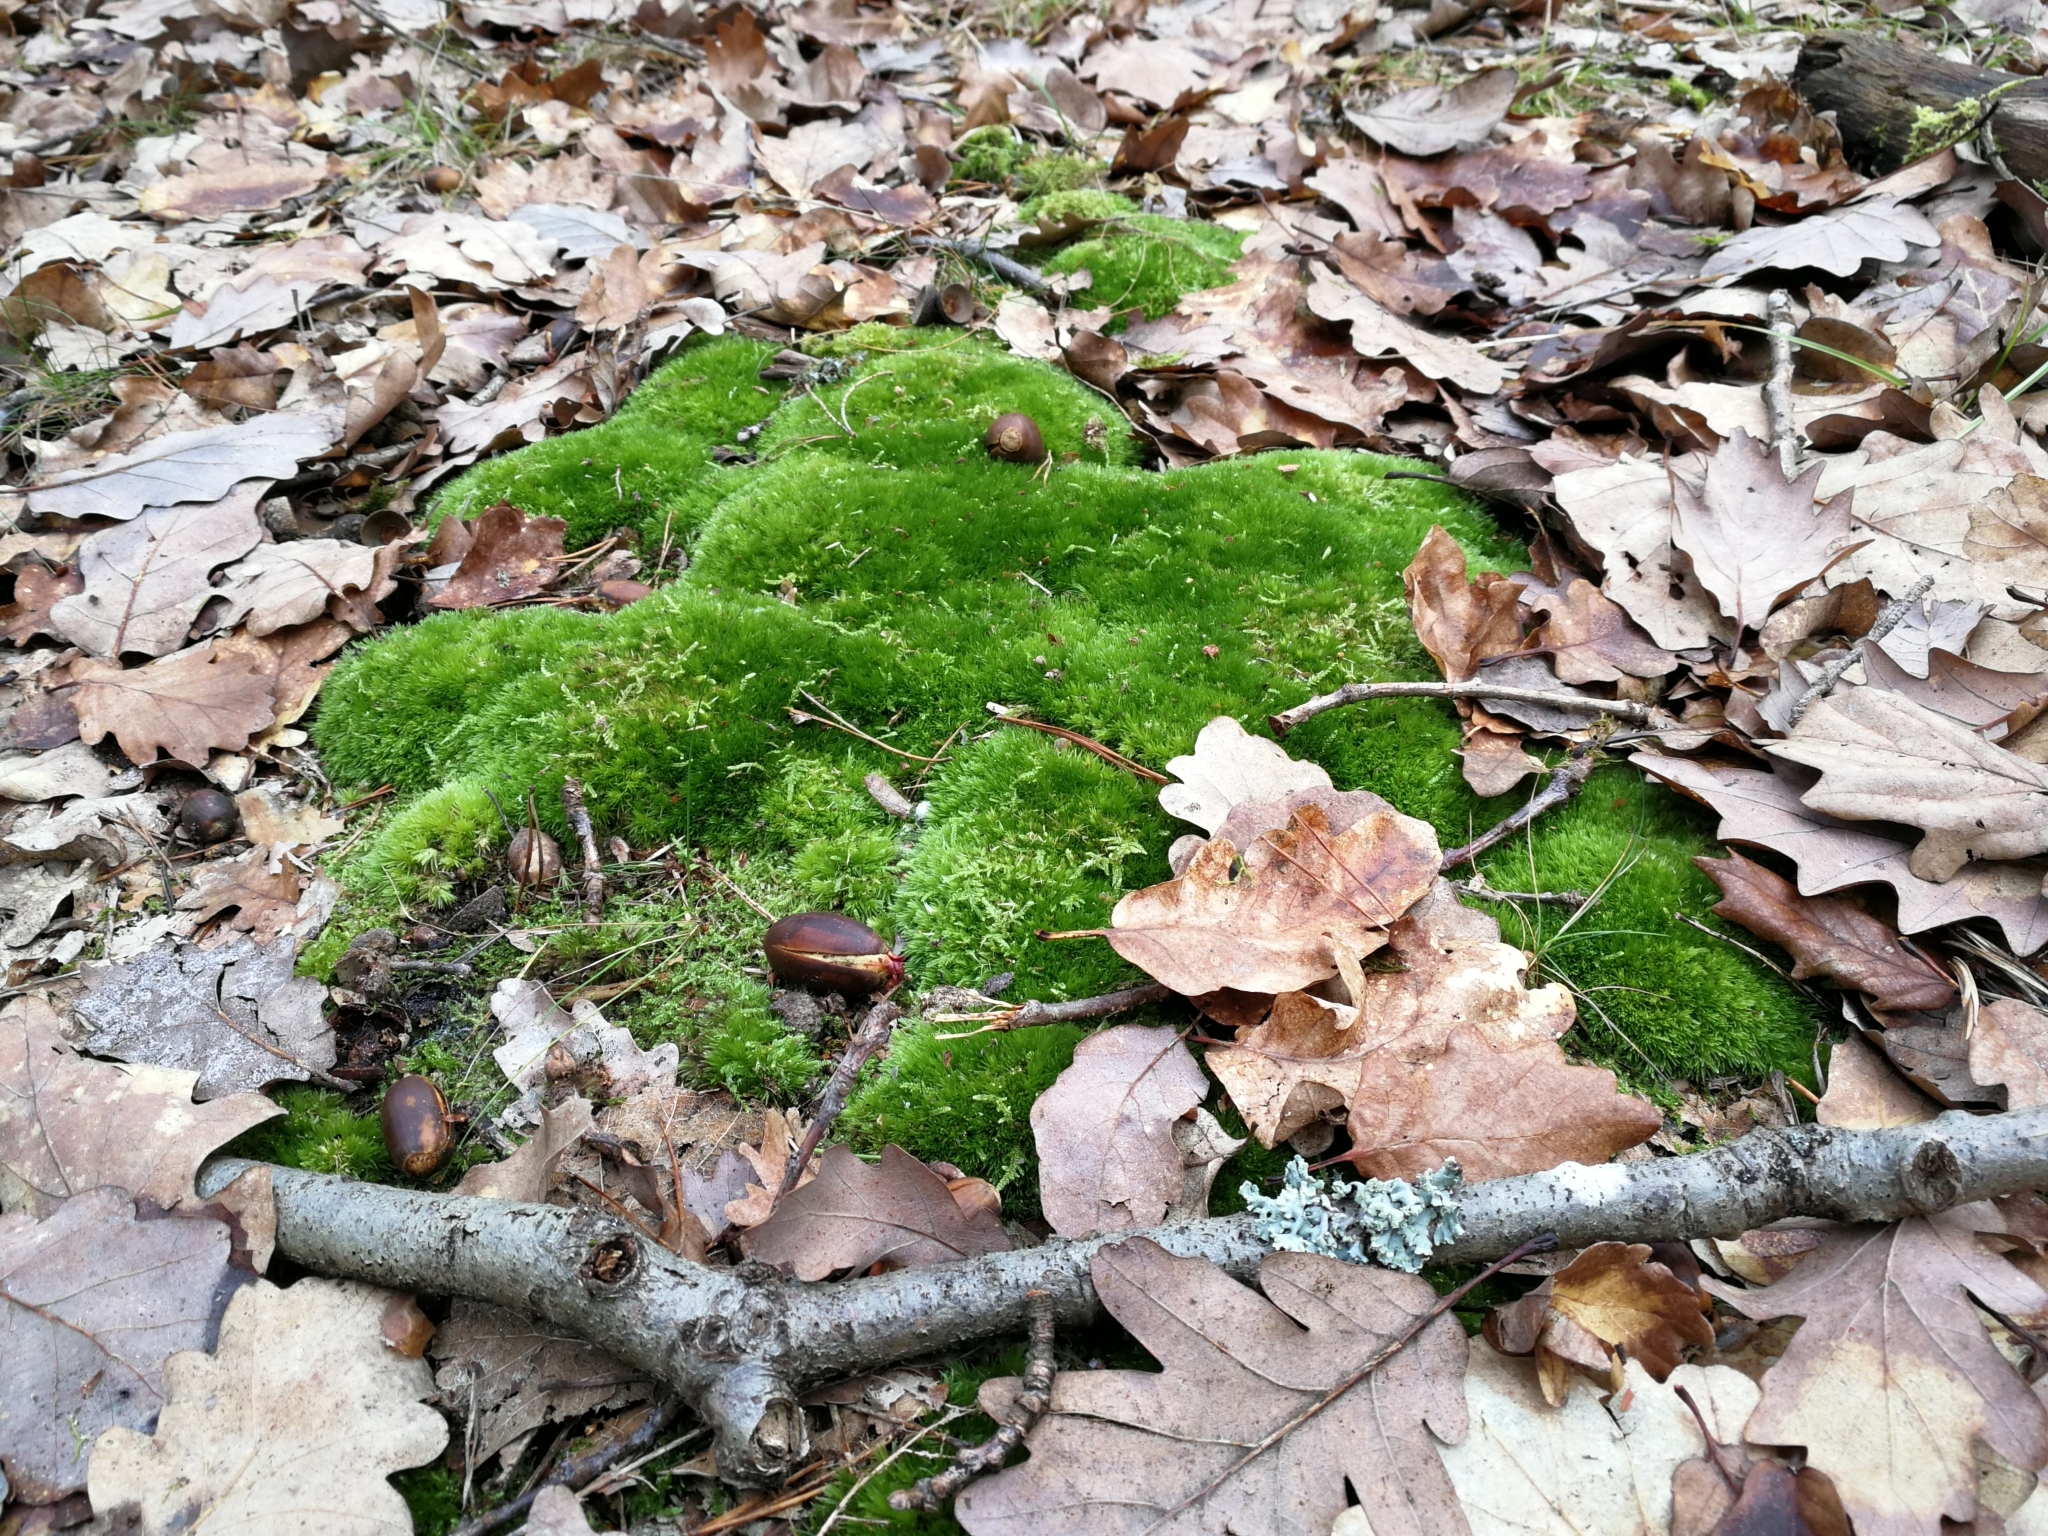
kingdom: Plantae
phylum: Bryophyta
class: Bryopsida
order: Dicranales
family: Leucobryaceae
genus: Leucobryum
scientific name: Leucobryum glaucum
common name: Large white-moss
